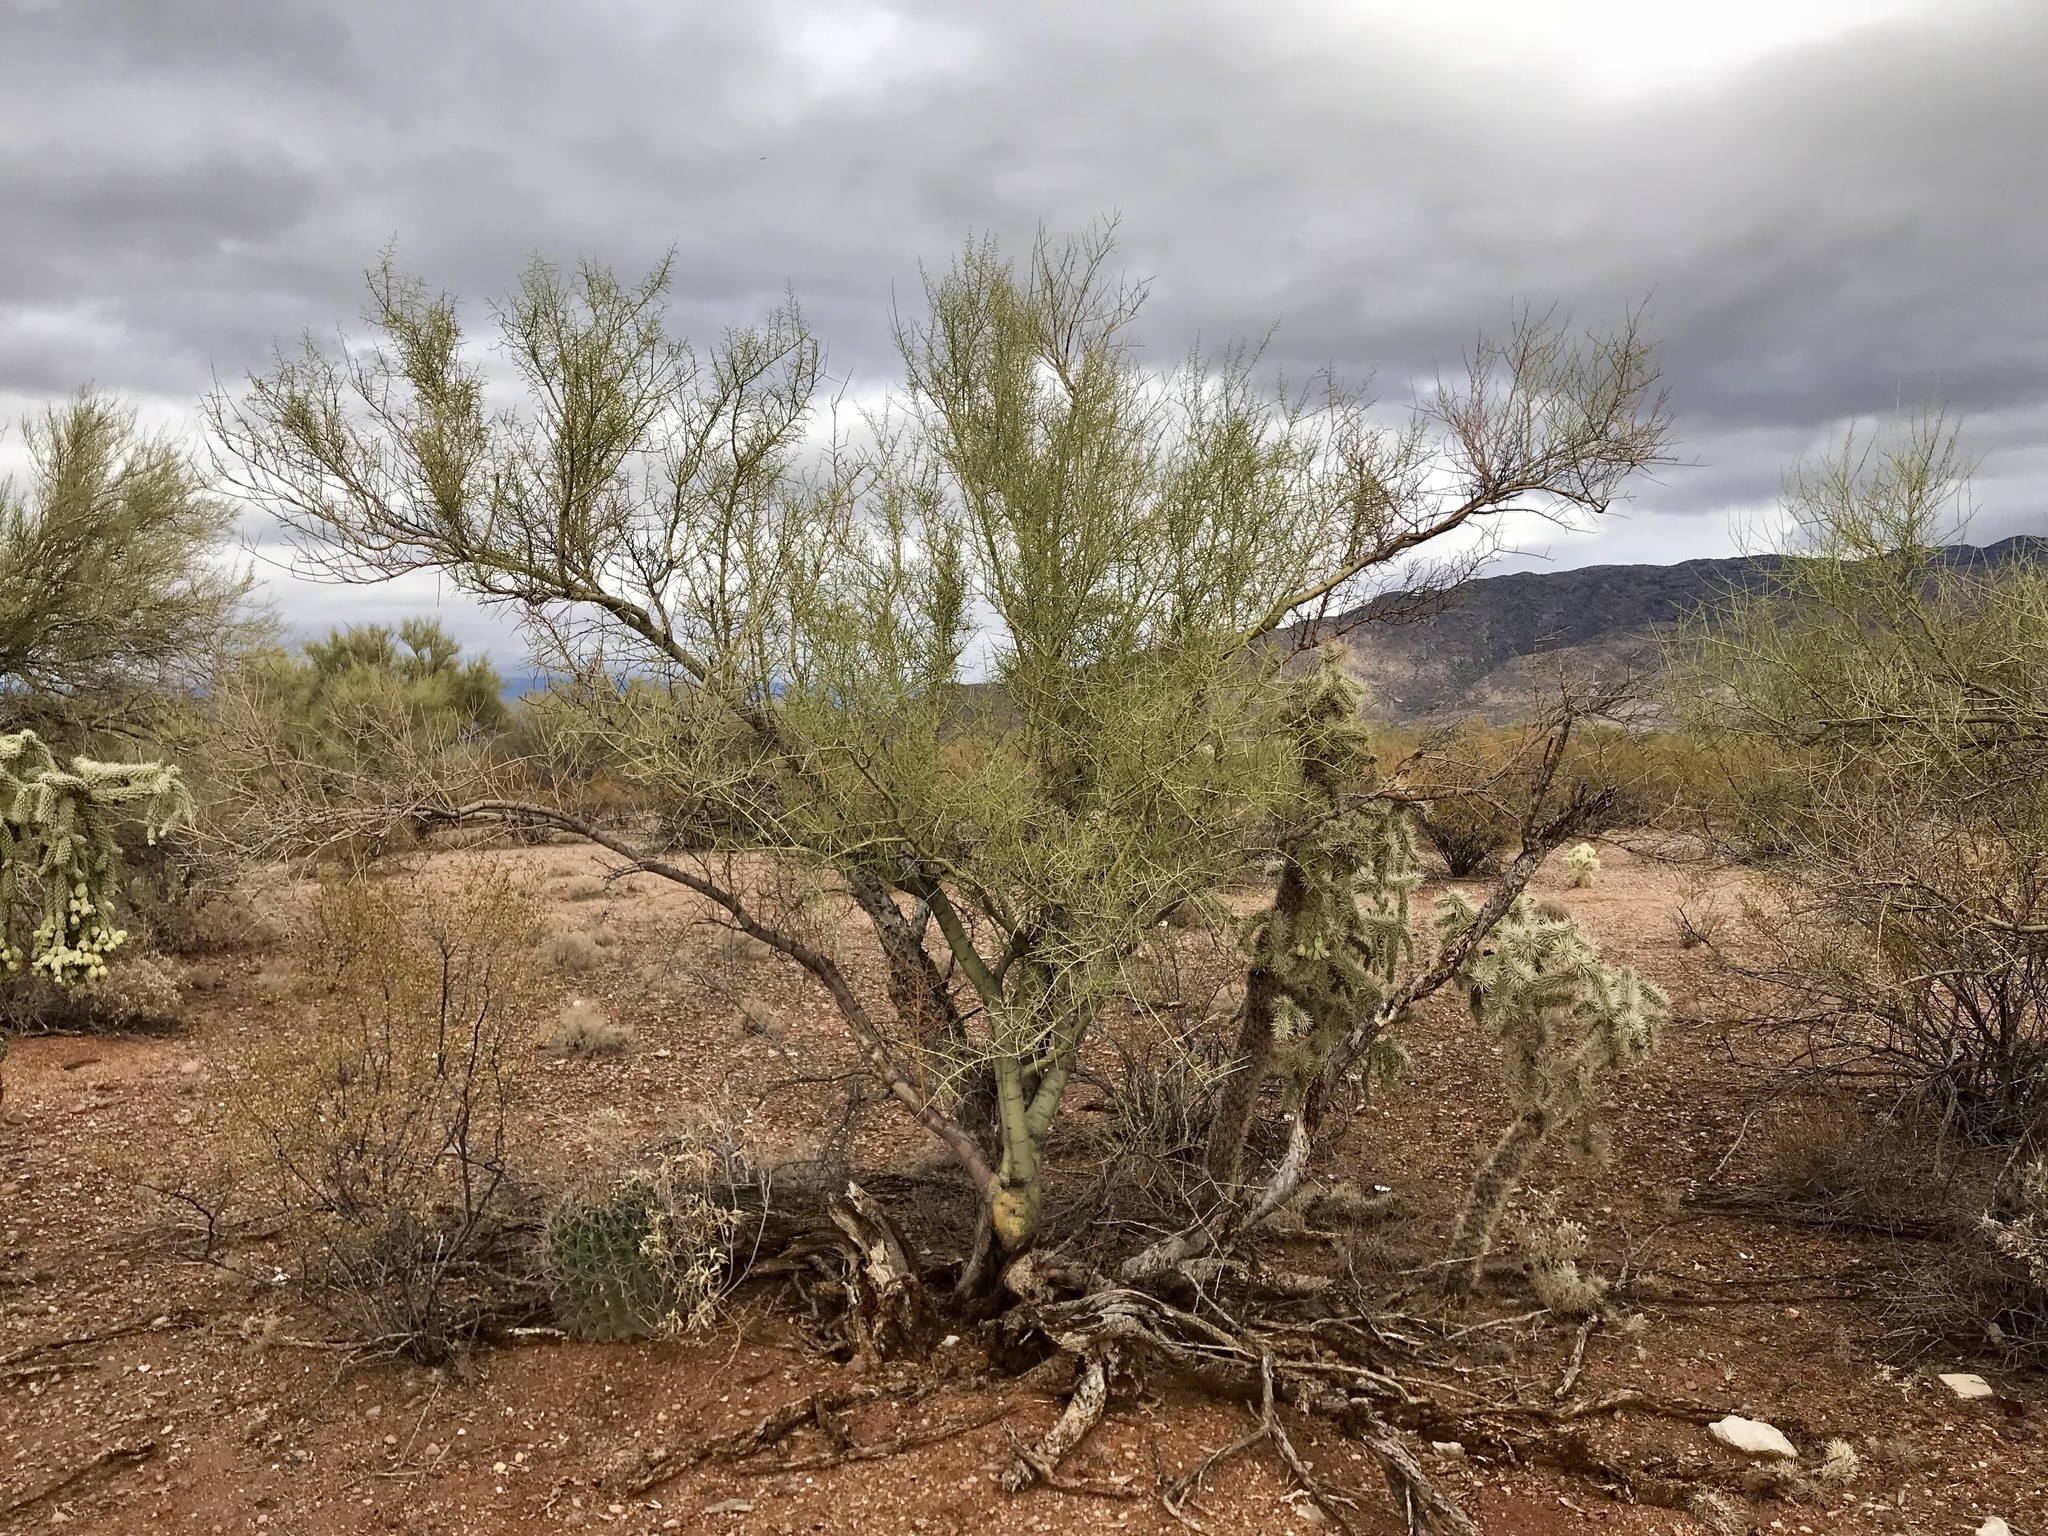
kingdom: Plantae
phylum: Tracheophyta
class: Magnoliopsida
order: Fabales
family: Fabaceae
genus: Parkinsonia
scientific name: Parkinsonia microphylla
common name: Yellow paloverde
